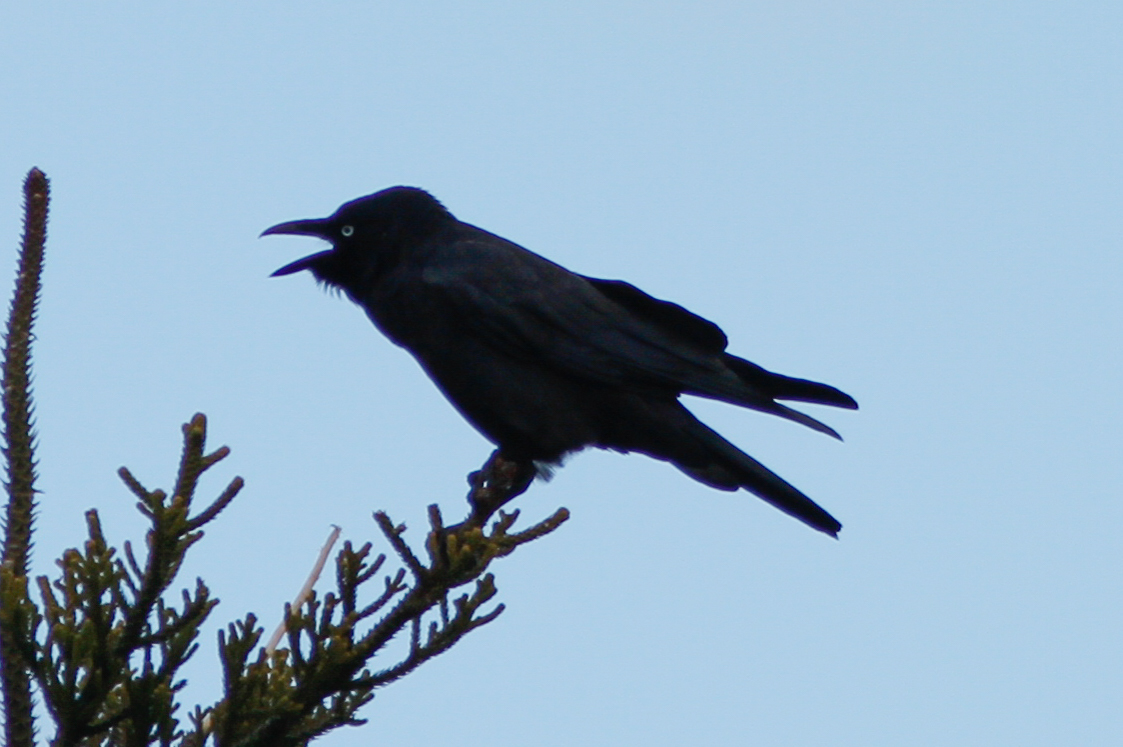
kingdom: Animalia
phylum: Chordata
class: Aves
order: Passeriformes
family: Corvidae
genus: Corvus
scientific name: Corvus orru
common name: Torresian crow
